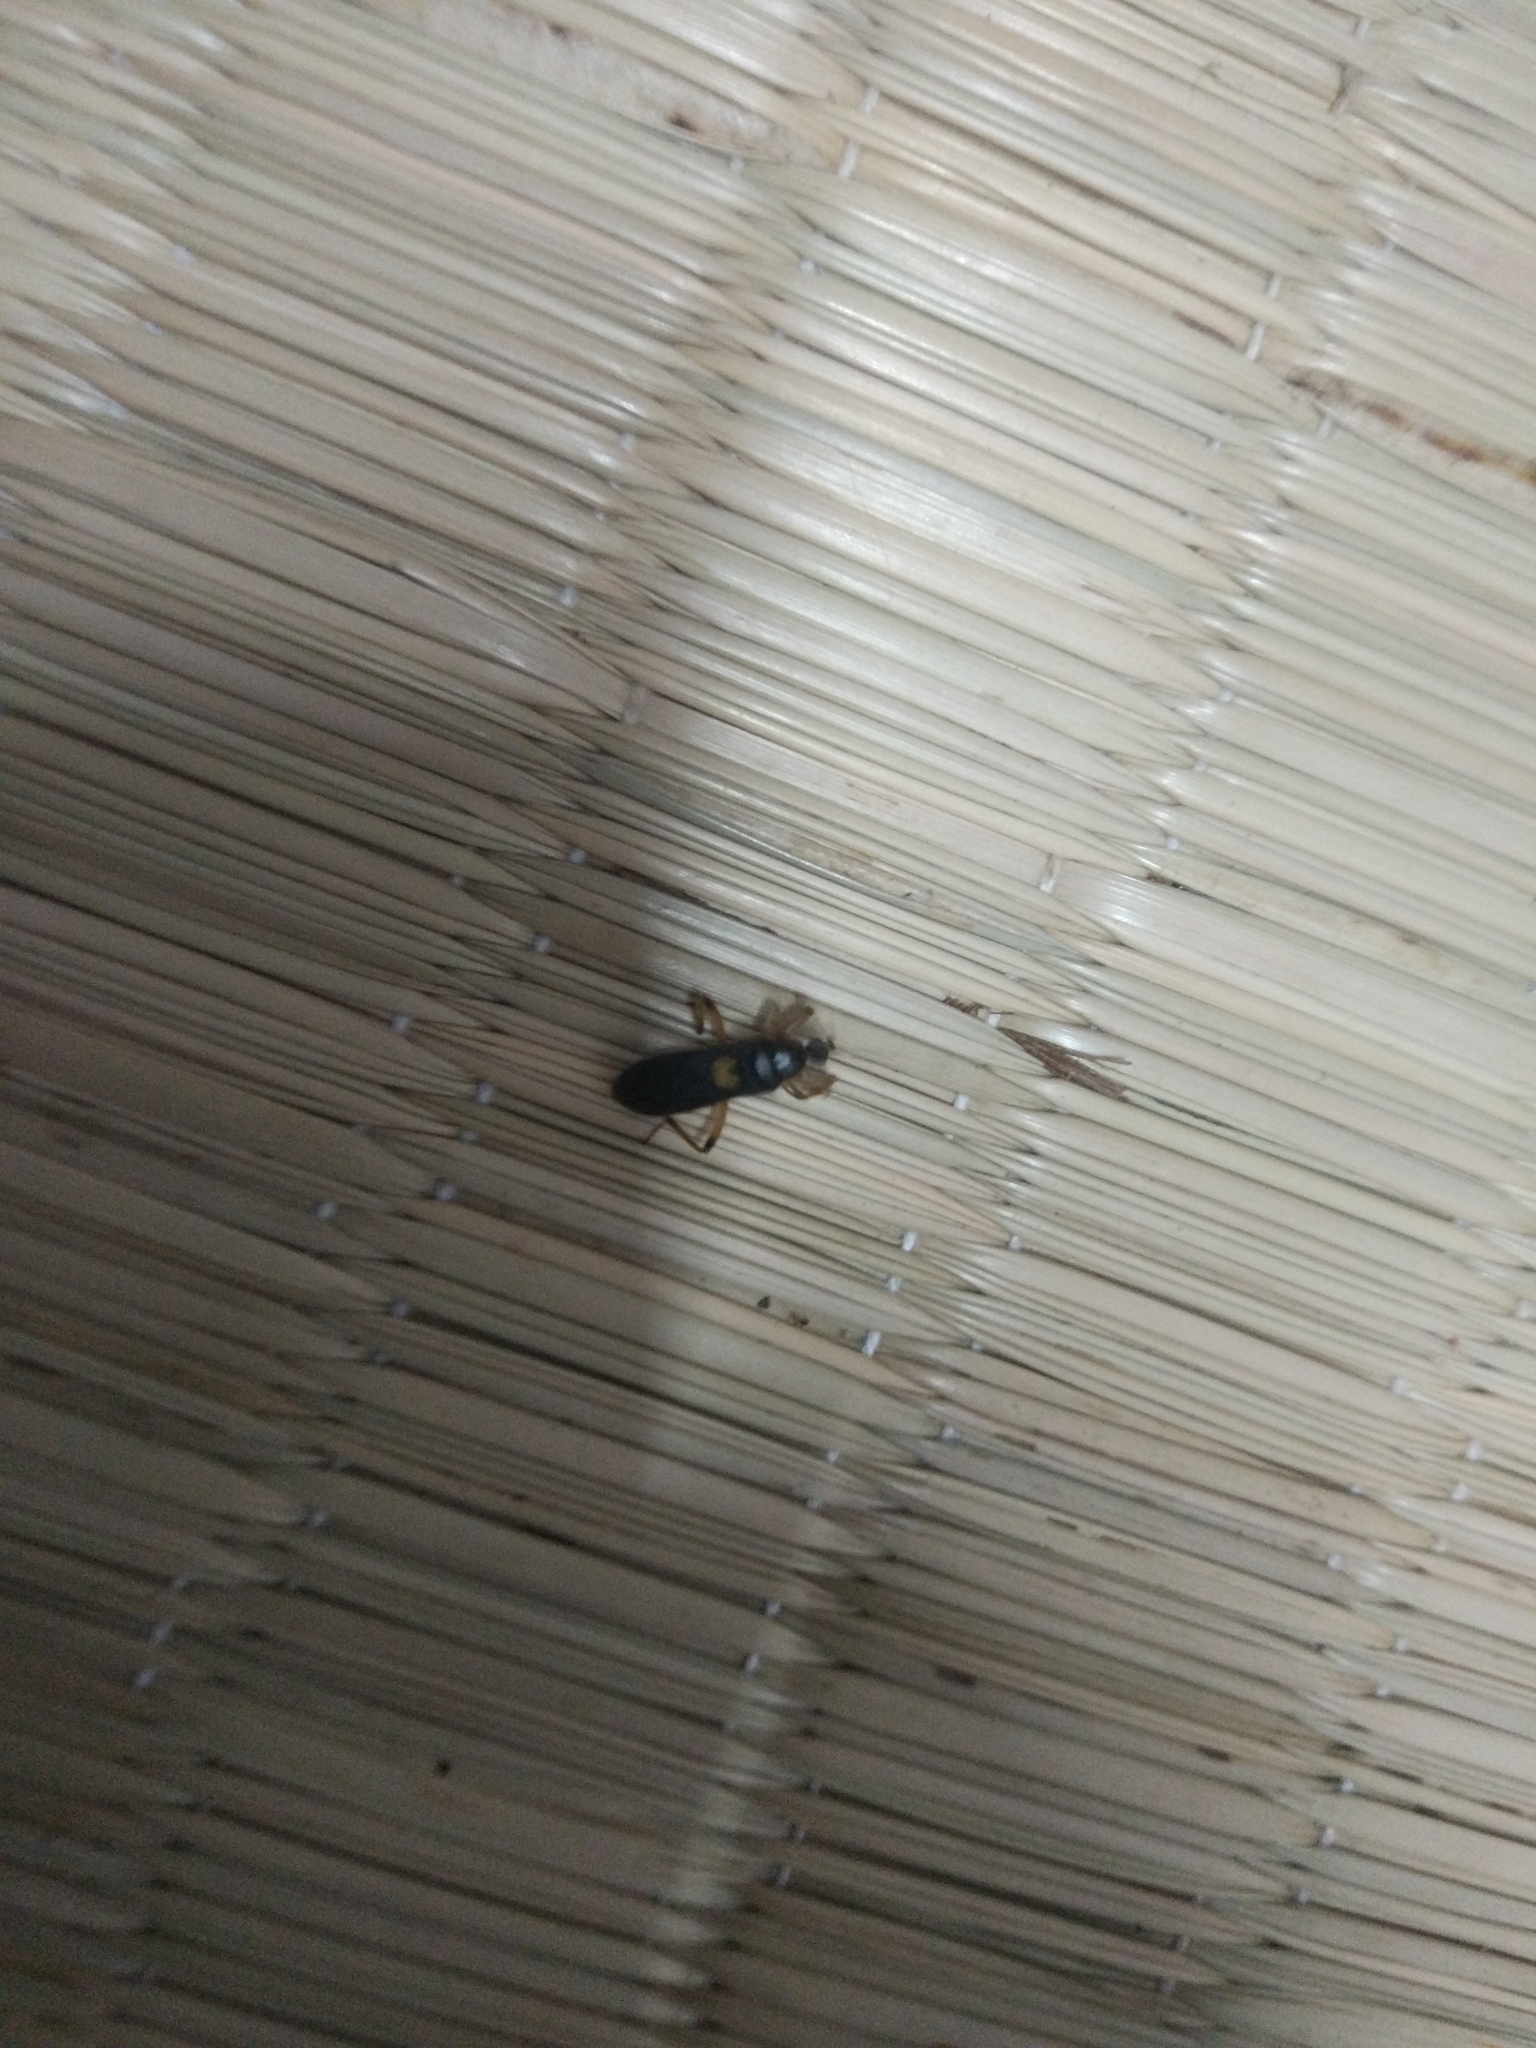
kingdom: Animalia
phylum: Arthropoda
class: Insecta
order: Hemiptera
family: Reduviidae
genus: Ectomocoris
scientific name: Ectomocoris cordiger
